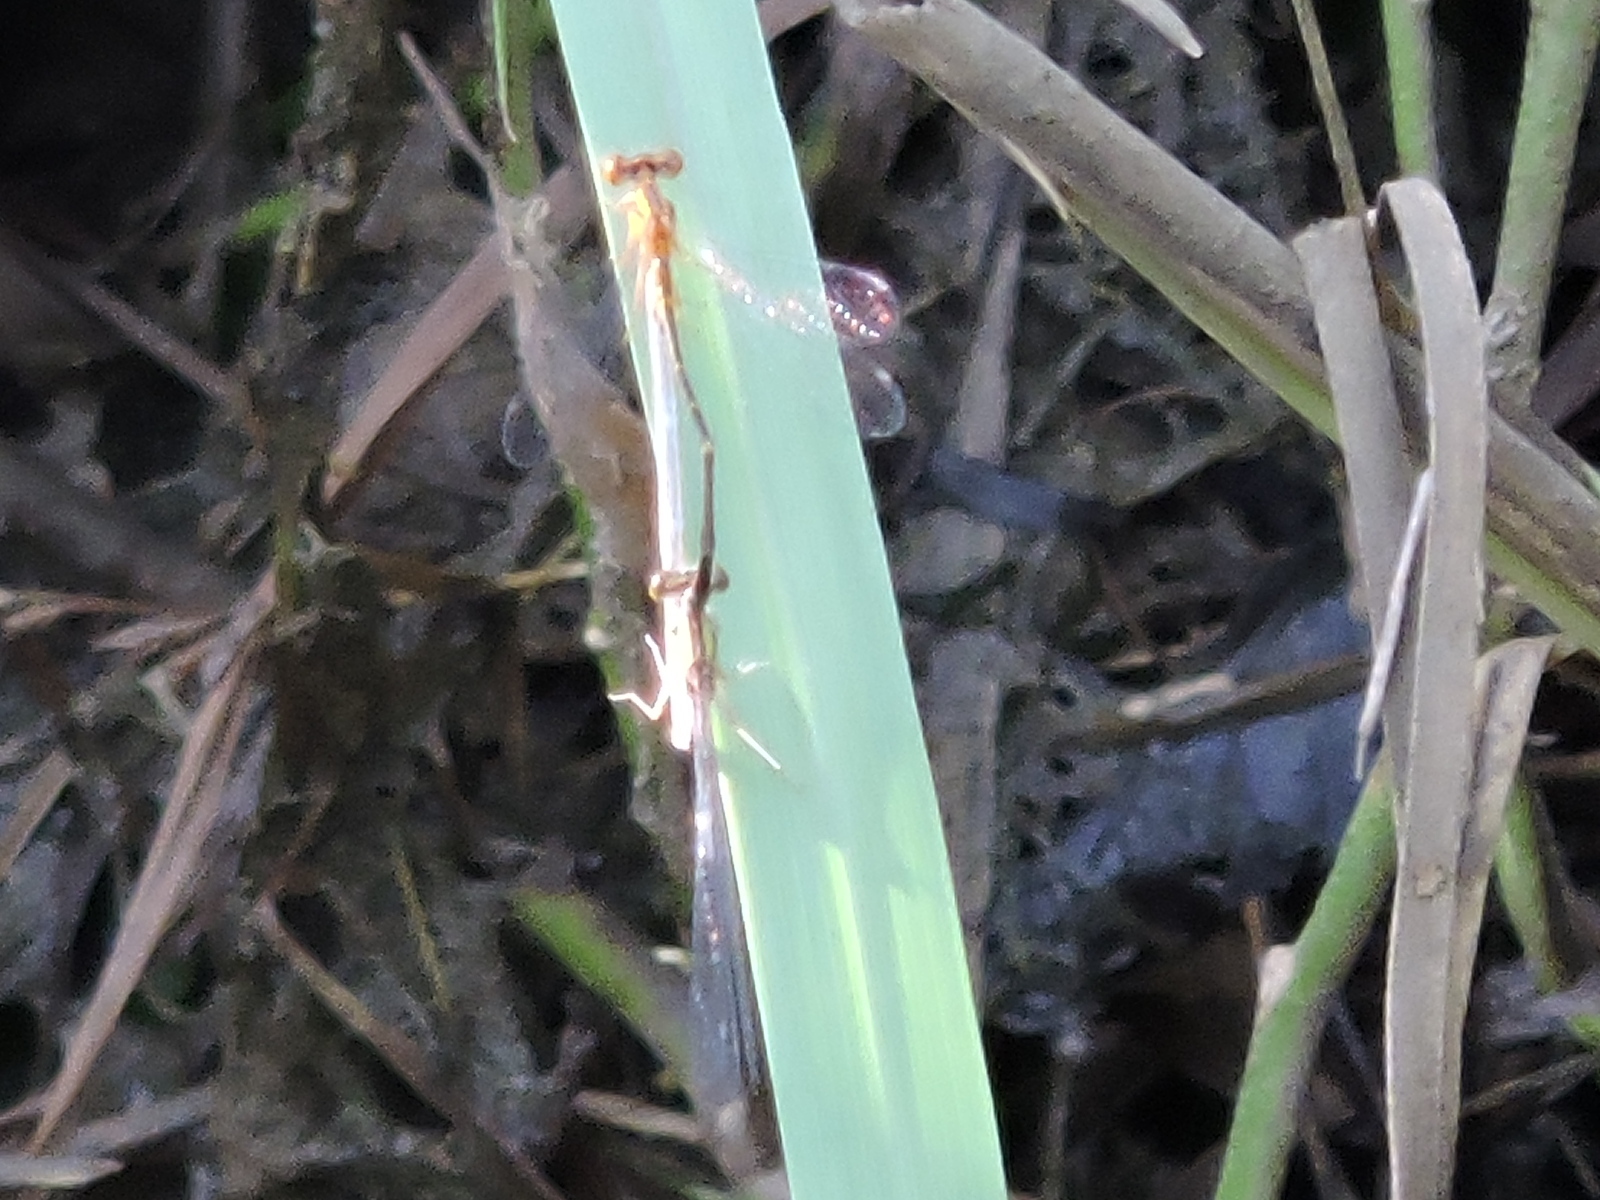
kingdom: Animalia
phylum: Arthropoda
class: Insecta
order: Odonata
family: Coenagrionidae
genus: Enallagma
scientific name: Enallagma signatum
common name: Orange bluet
